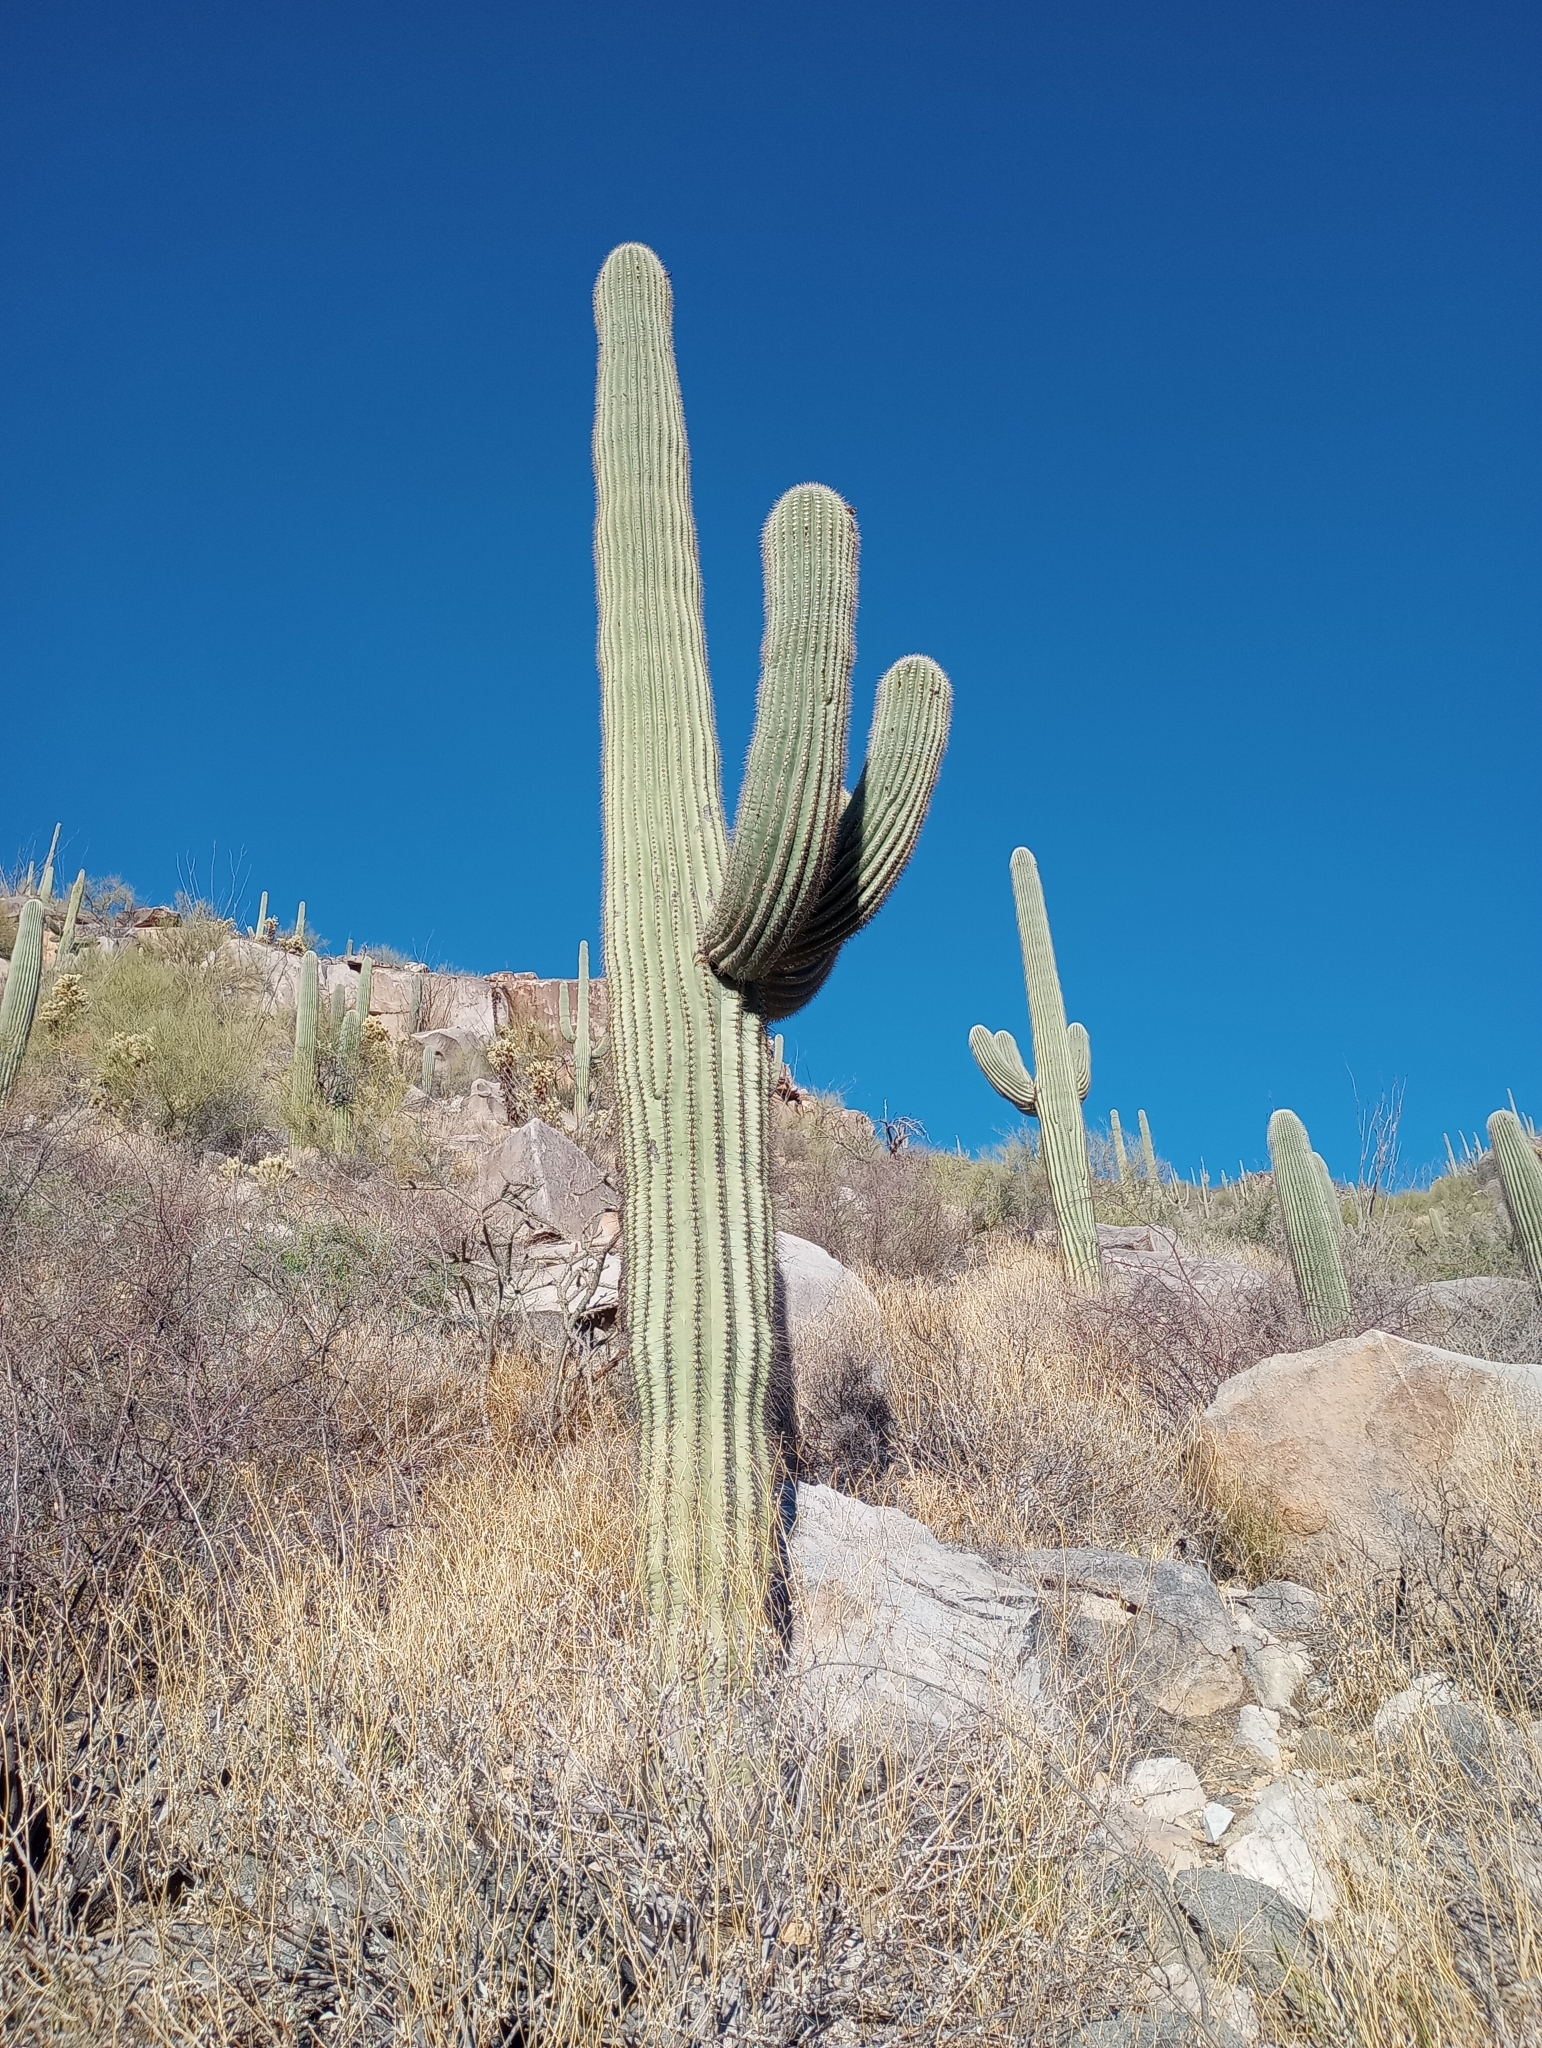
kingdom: Plantae
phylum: Tracheophyta
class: Magnoliopsida
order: Caryophyllales
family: Cactaceae
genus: Carnegiea
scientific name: Carnegiea gigantea
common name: Saguaro
